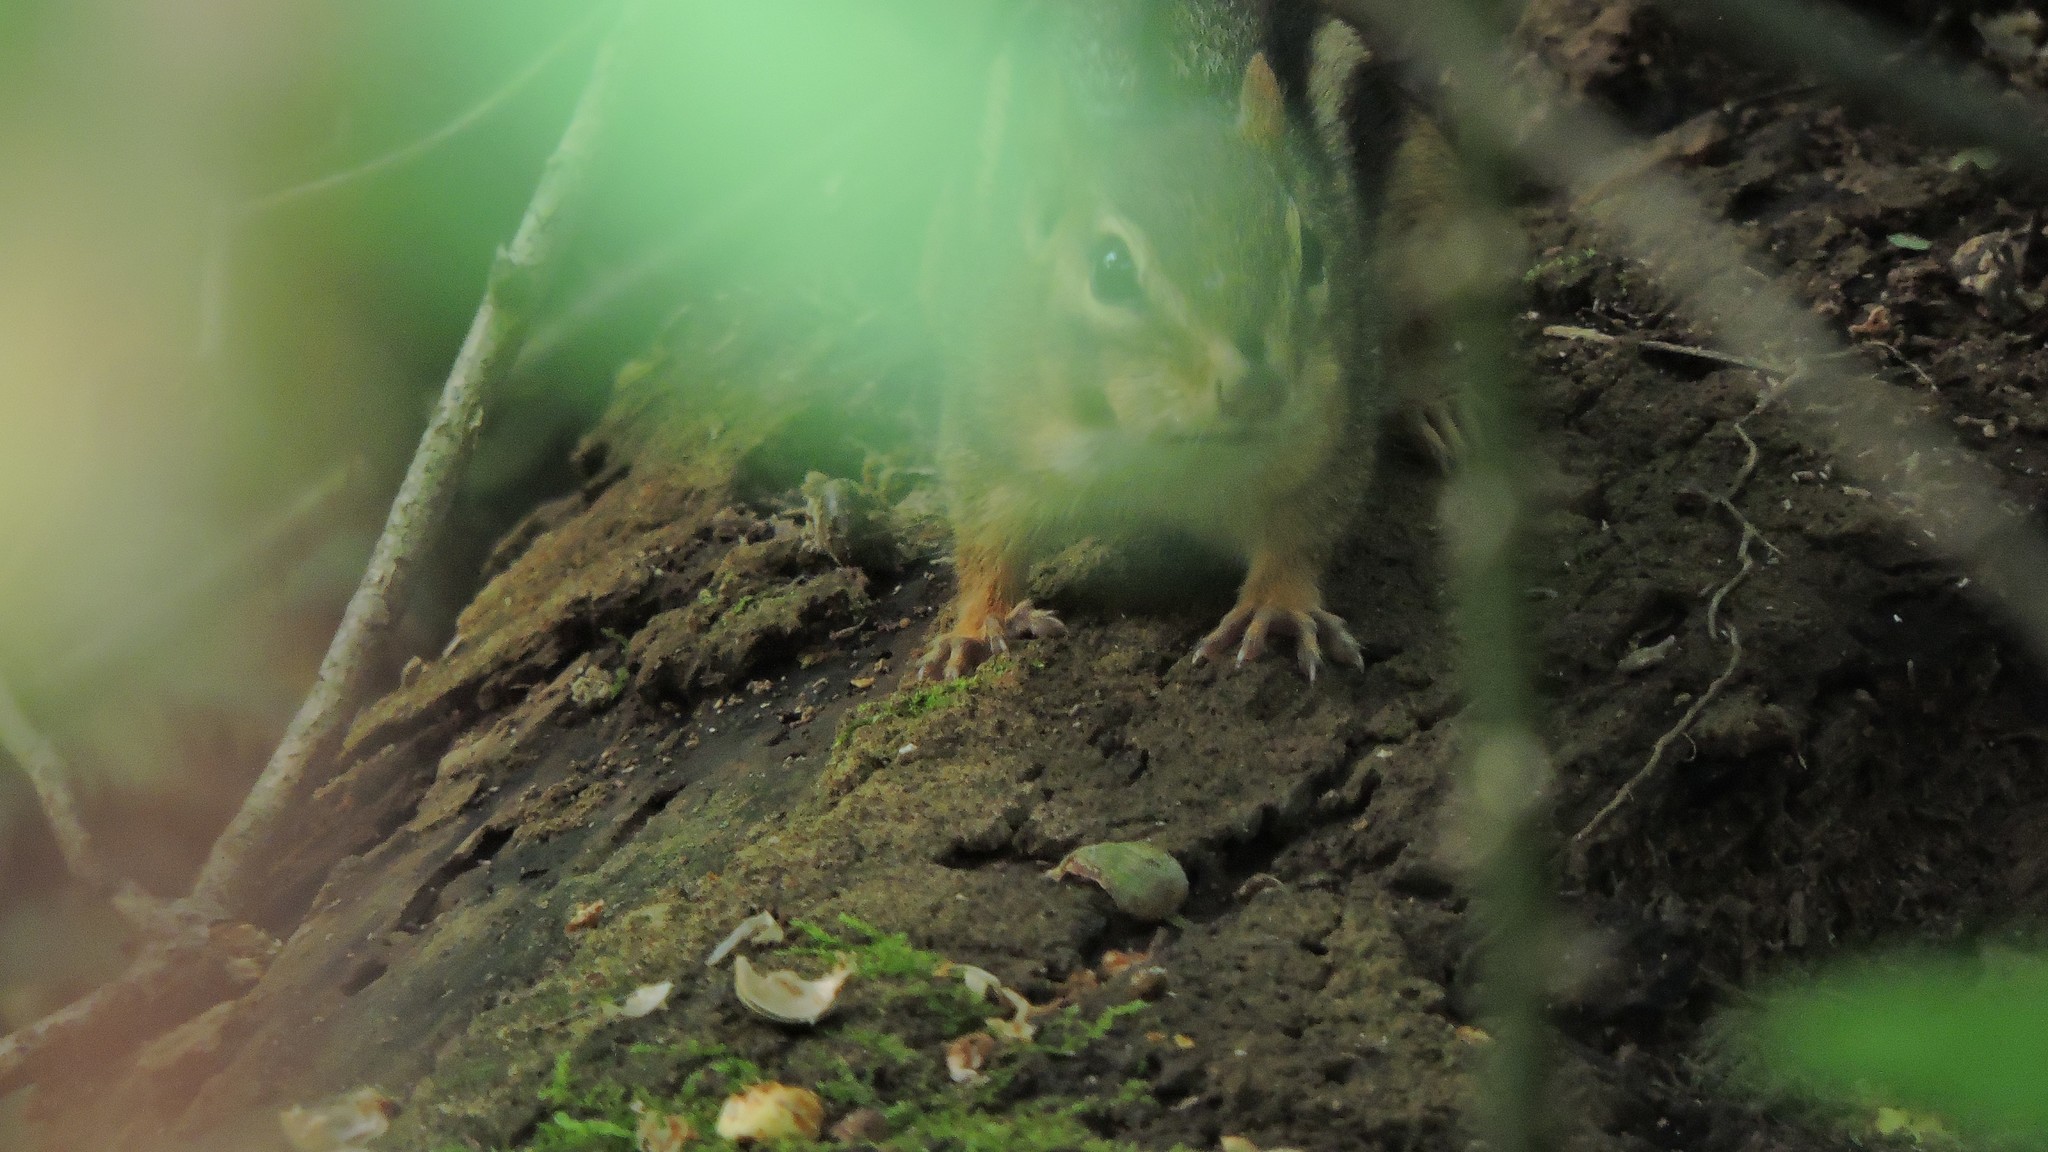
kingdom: Animalia
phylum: Chordata
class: Mammalia
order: Rodentia
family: Sciuridae
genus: Tamias
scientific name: Tamias striatus
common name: Eastern chipmunk
